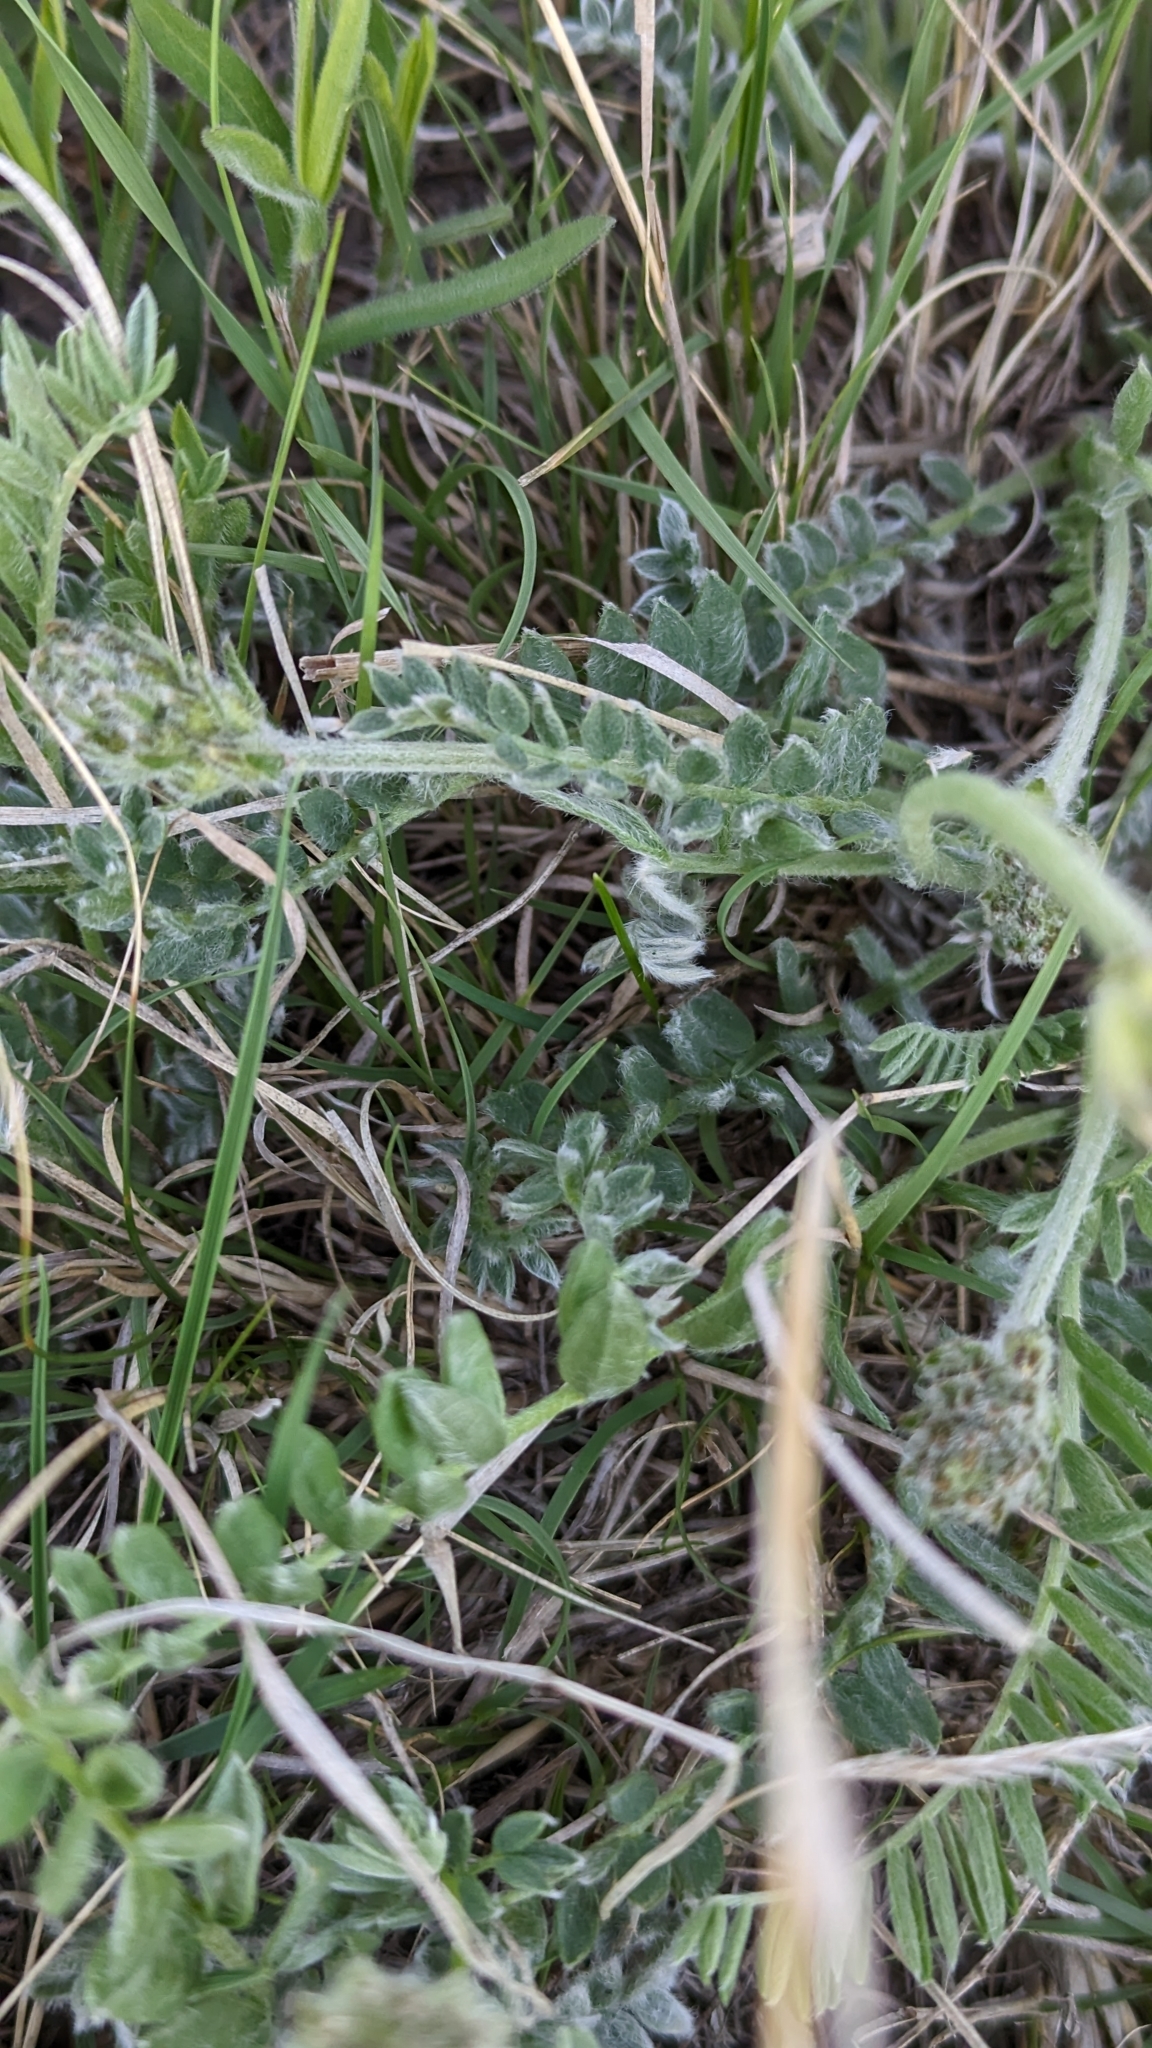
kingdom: Plantae
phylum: Tracheophyta
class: Magnoliopsida
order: Fabales
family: Fabaceae
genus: Oxytropis
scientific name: Oxytropis lambertii
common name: Purple locoweed
